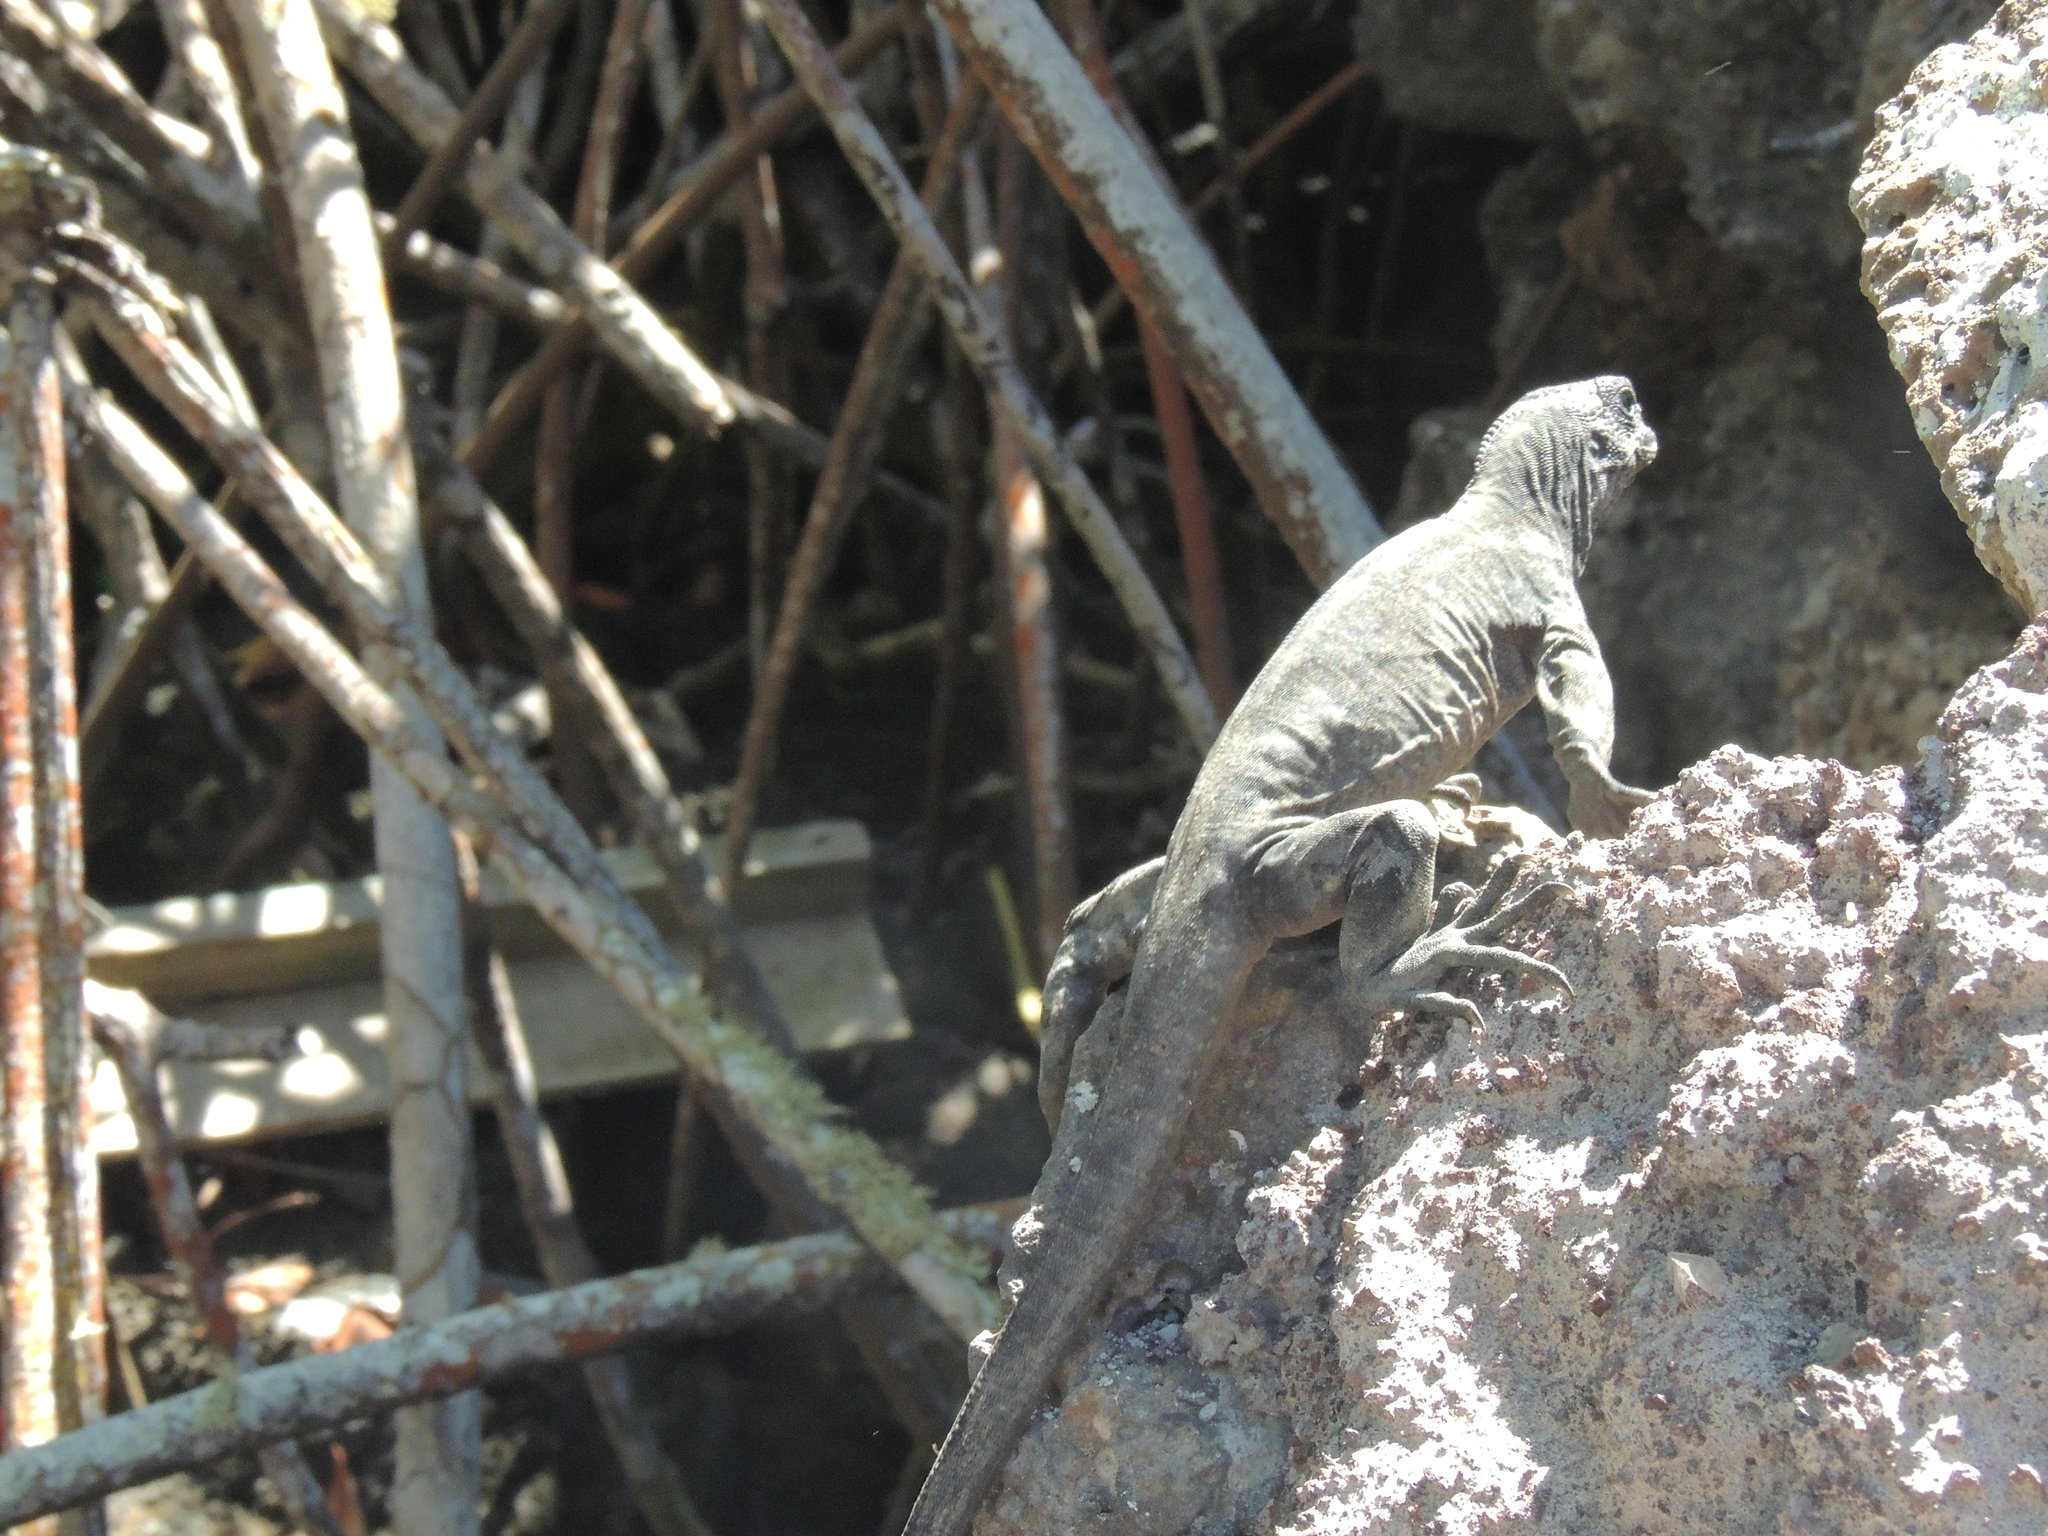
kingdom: Animalia
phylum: Chordata
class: Squamata
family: Iguanidae
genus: Amblyrhynchus
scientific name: Amblyrhynchus cristatus
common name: Marine iguana
